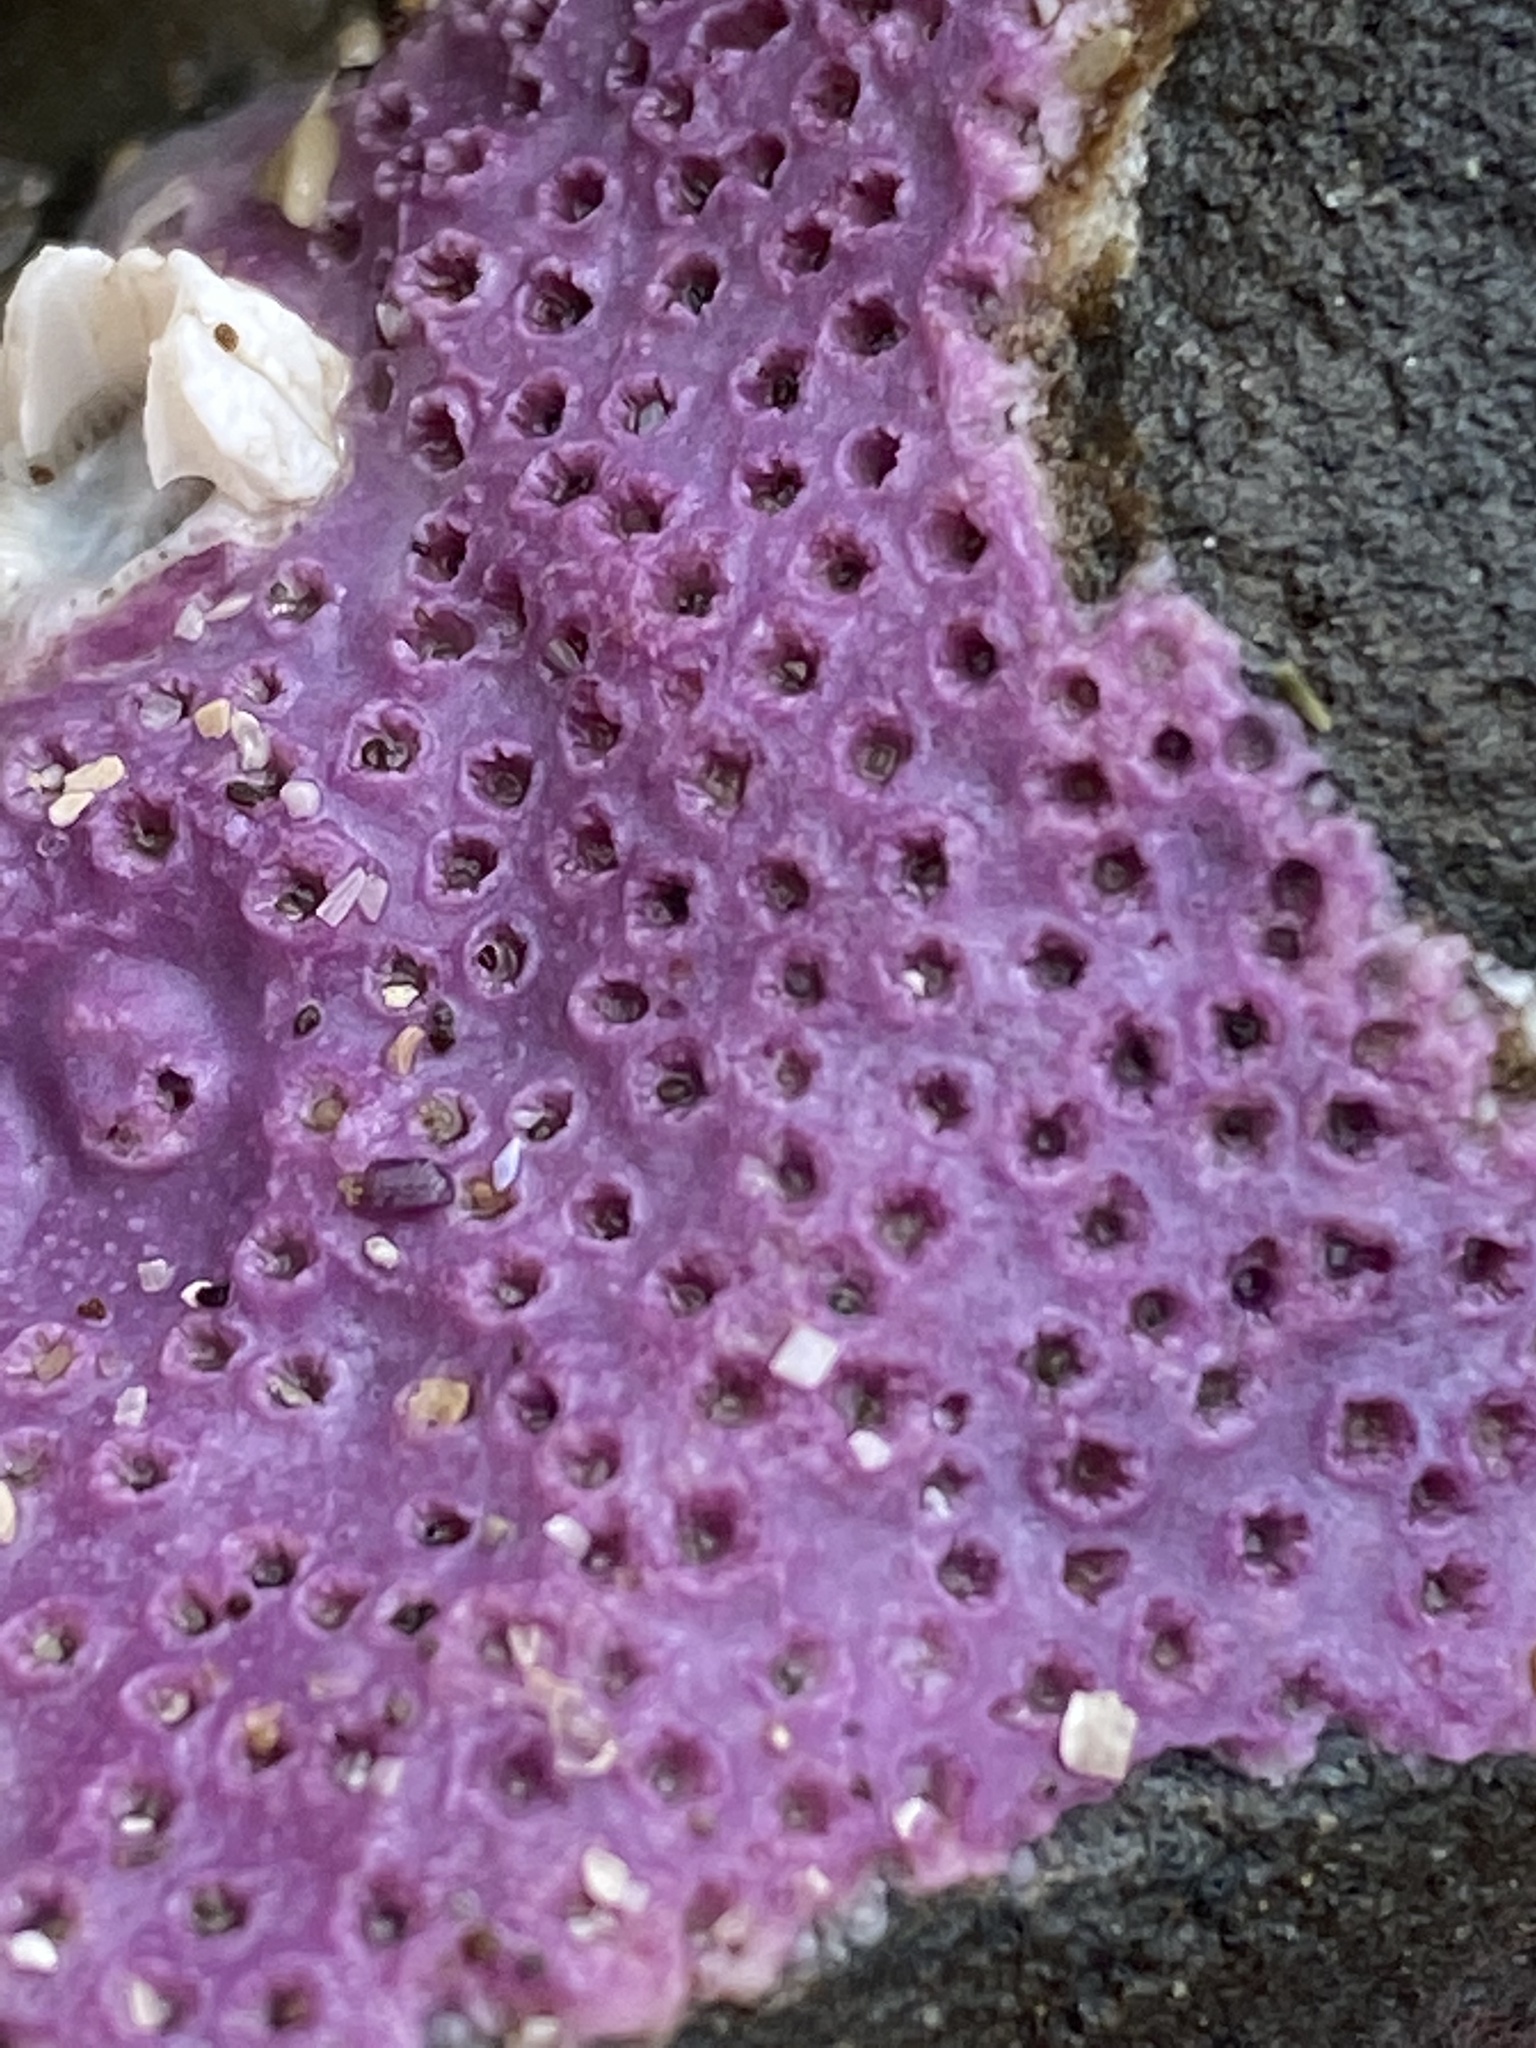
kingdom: Animalia
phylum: Cnidaria
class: Hydrozoa
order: Anthoathecata
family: Stylasteridae
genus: Stylantheca
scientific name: Stylantheca papillosa
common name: Corrugated lace hydrocoral
